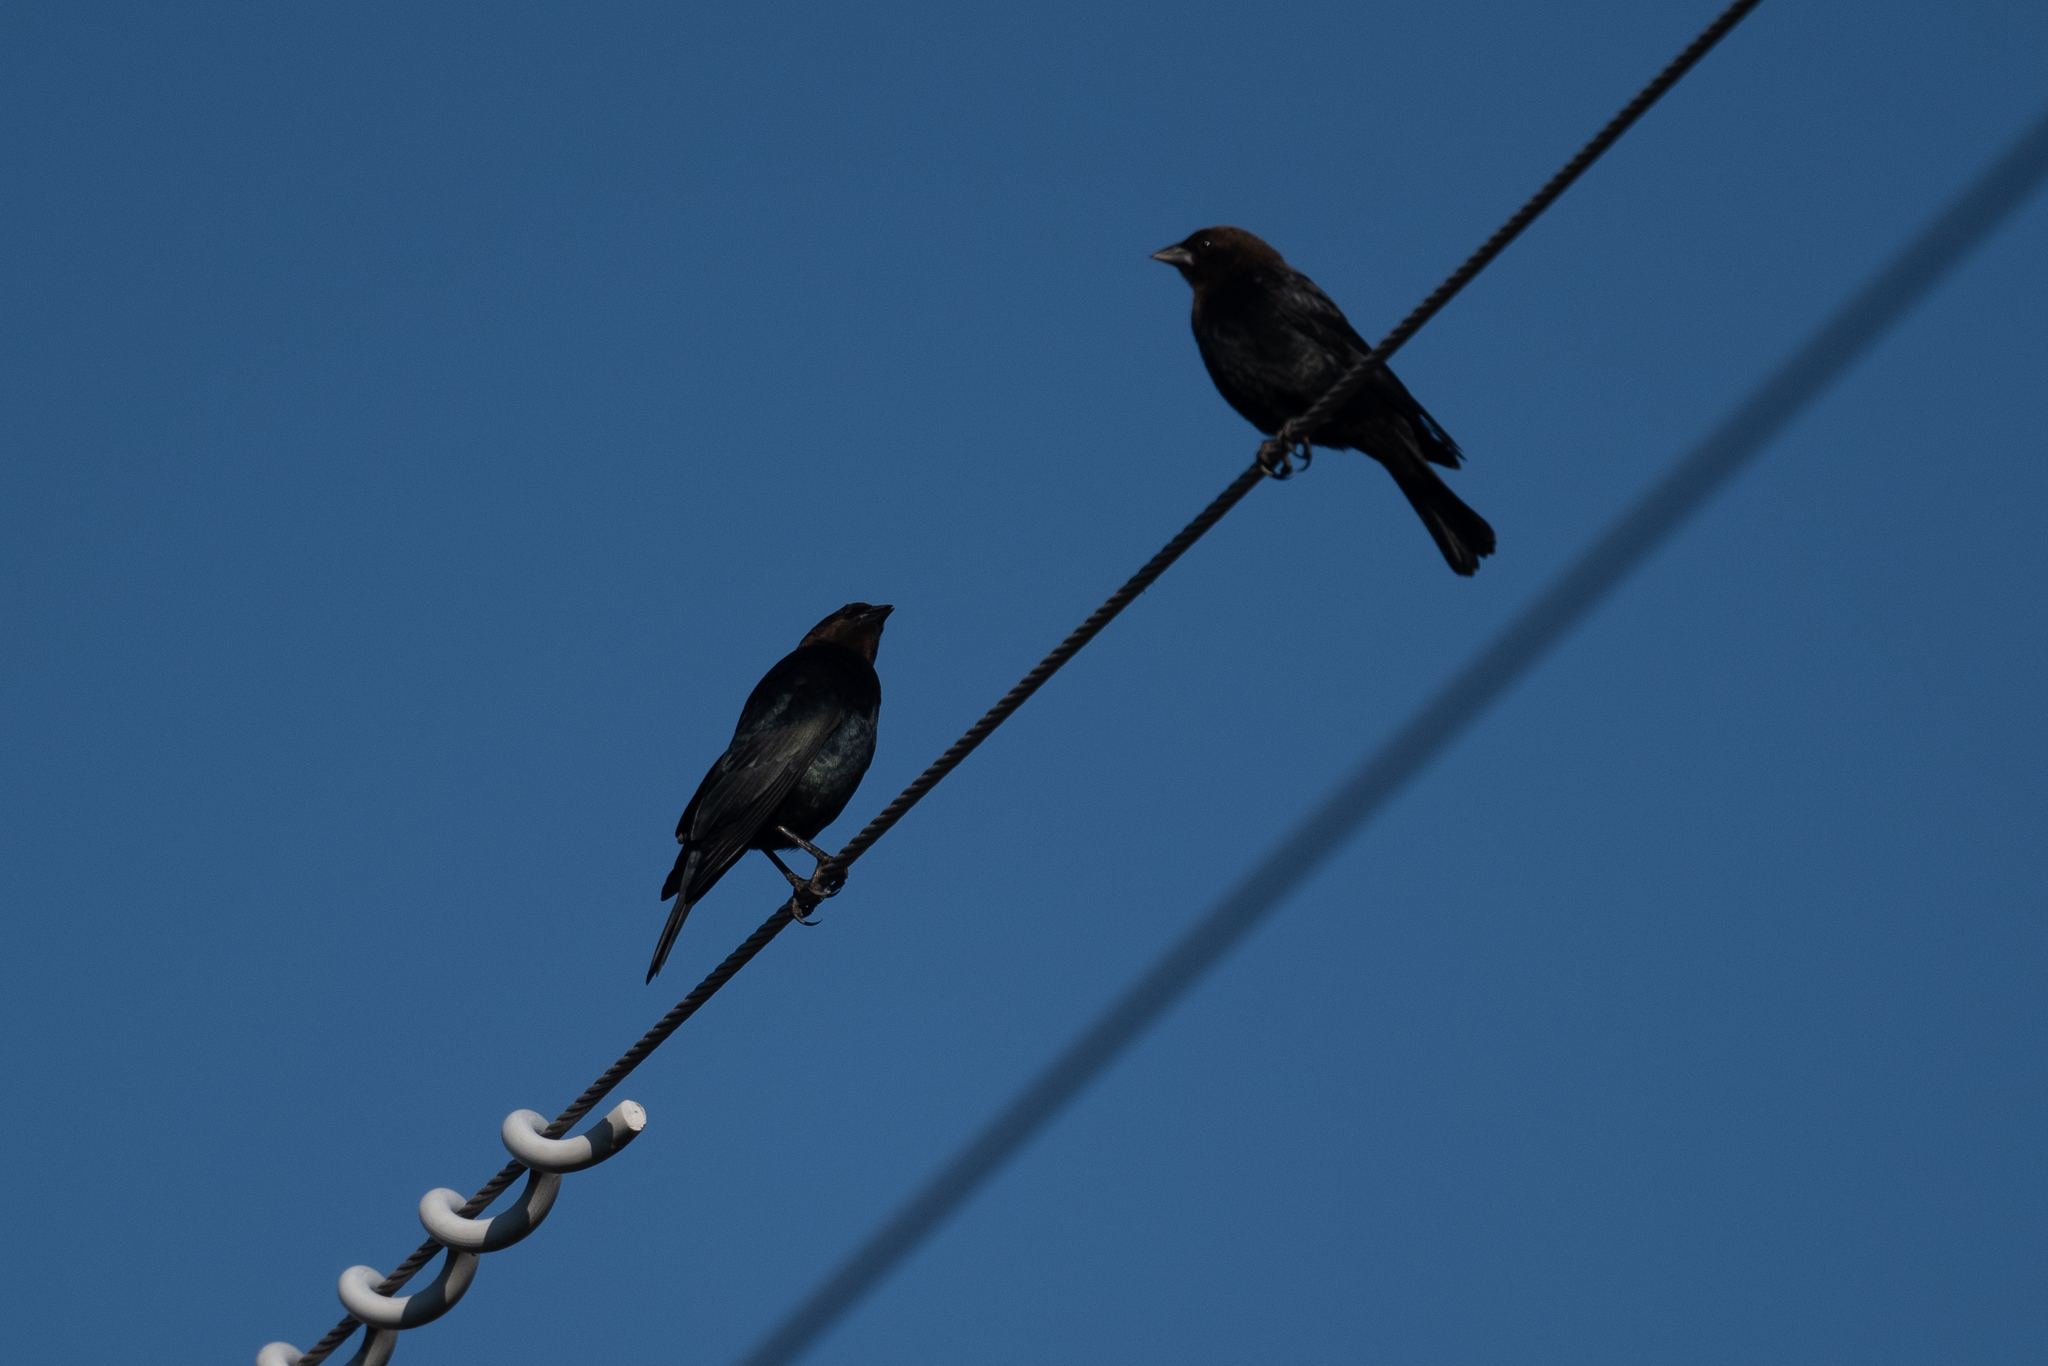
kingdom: Animalia
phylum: Chordata
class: Aves
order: Passeriformes
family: Icteridae
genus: Molothrus
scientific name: Molothrus ater
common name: Brown-headed cowbird
